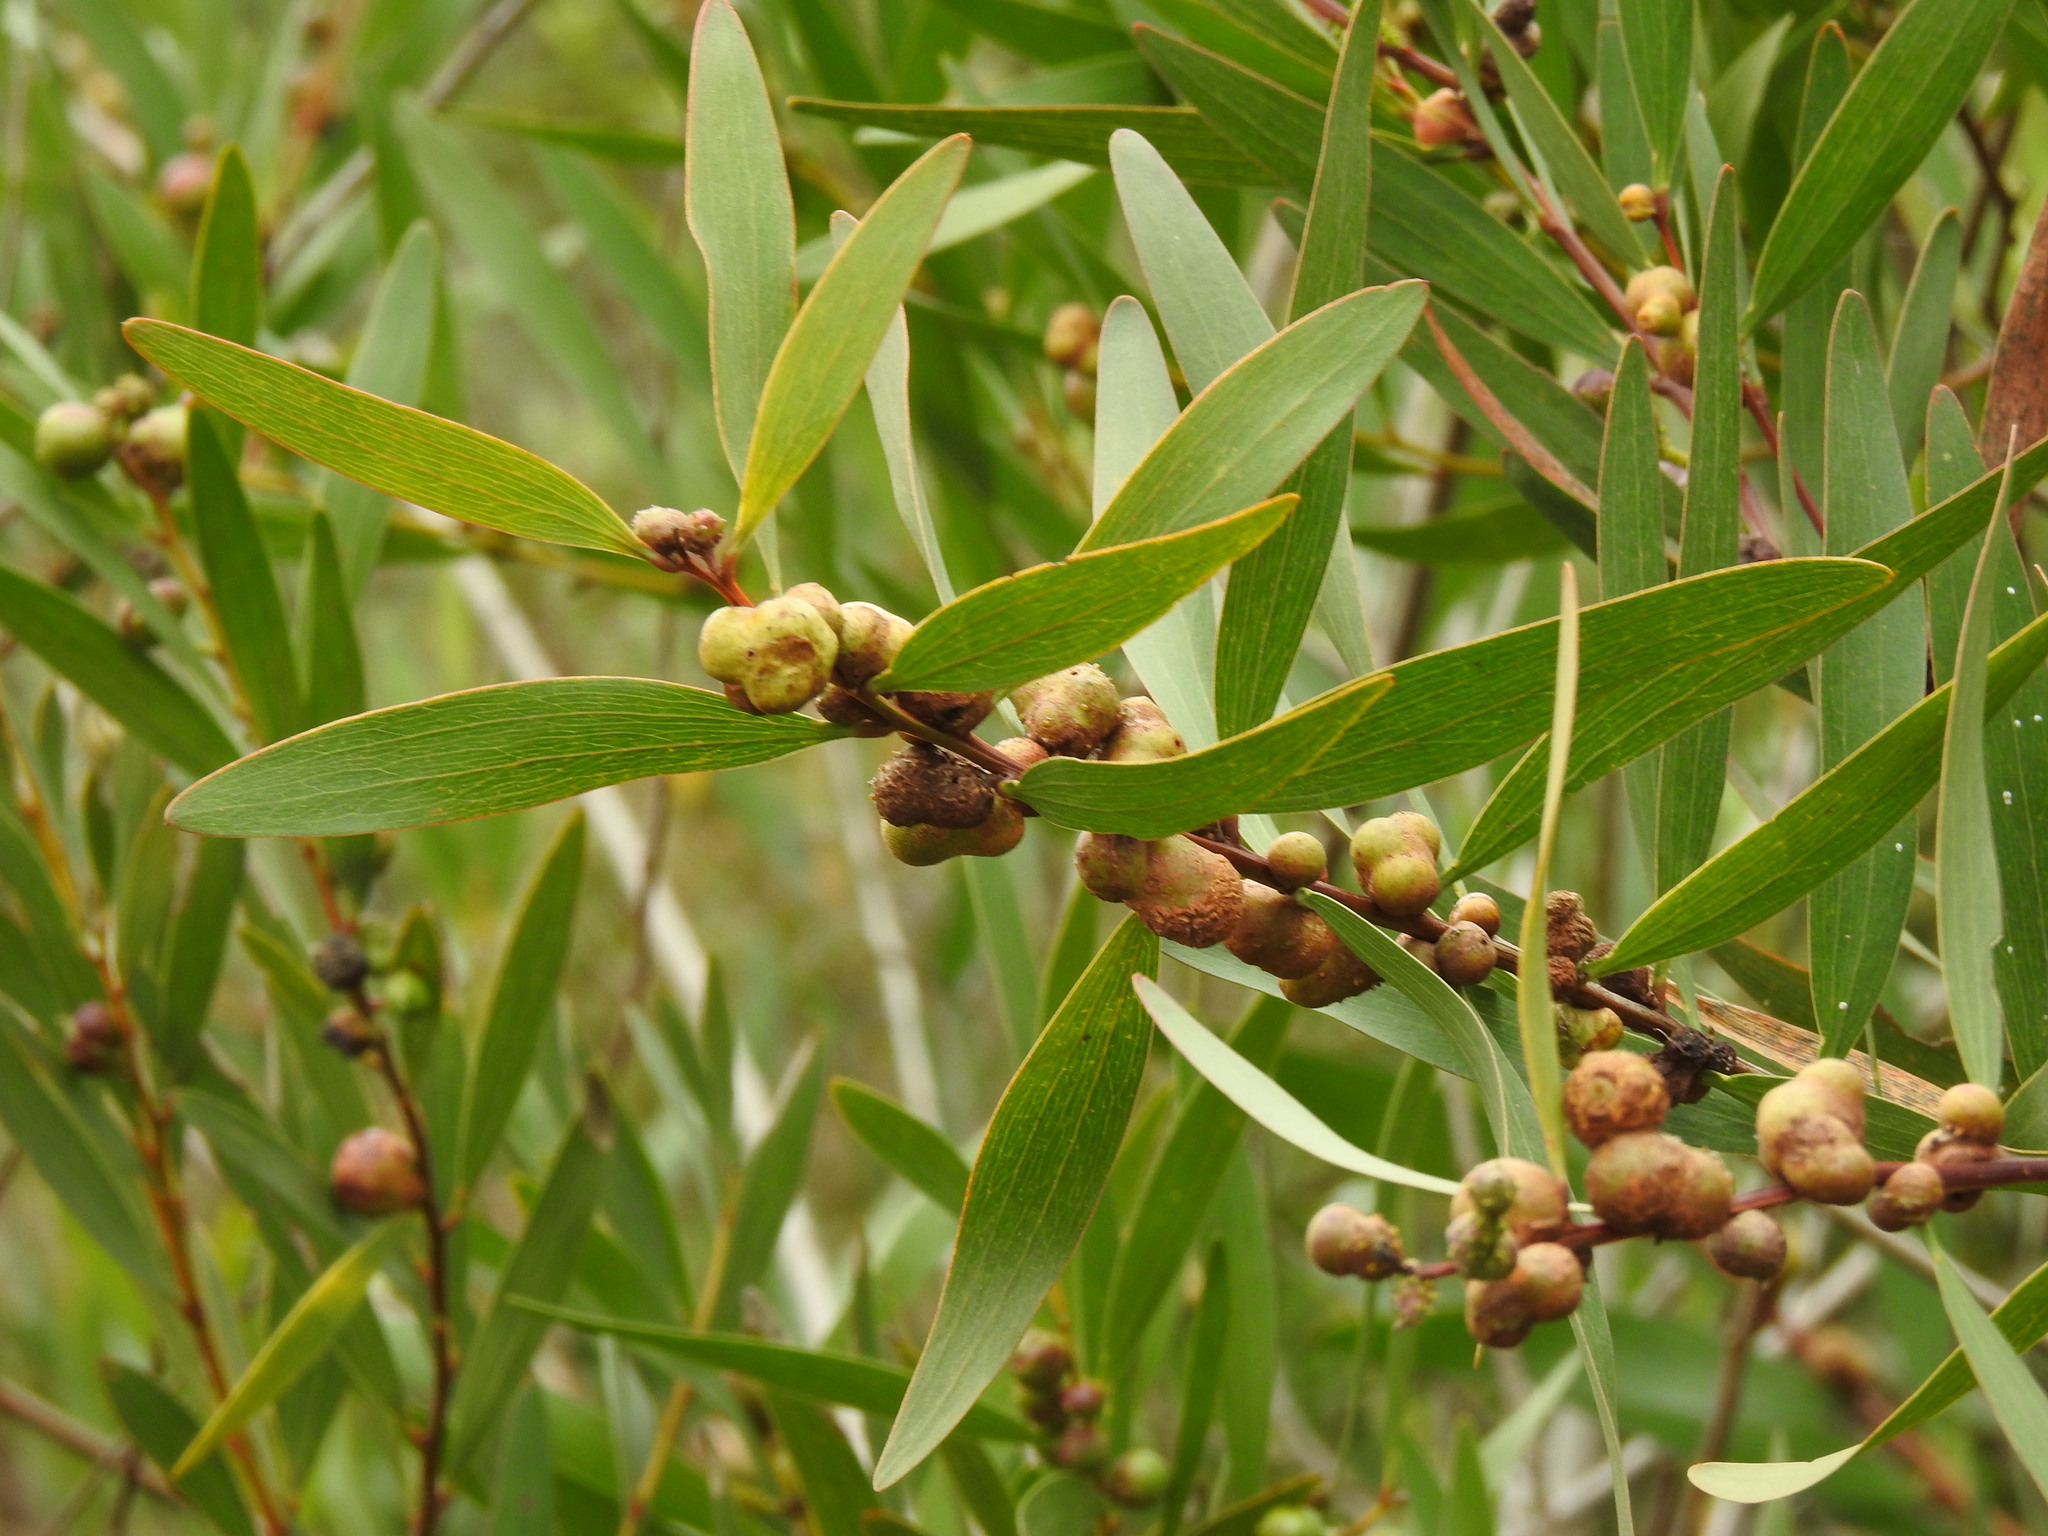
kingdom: Animalia
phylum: Arthropoda
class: Insecta
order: Hymenoptera
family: Pteromalidae
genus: Trichilogaster
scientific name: Trichilogaster acaciaelongifoliae
